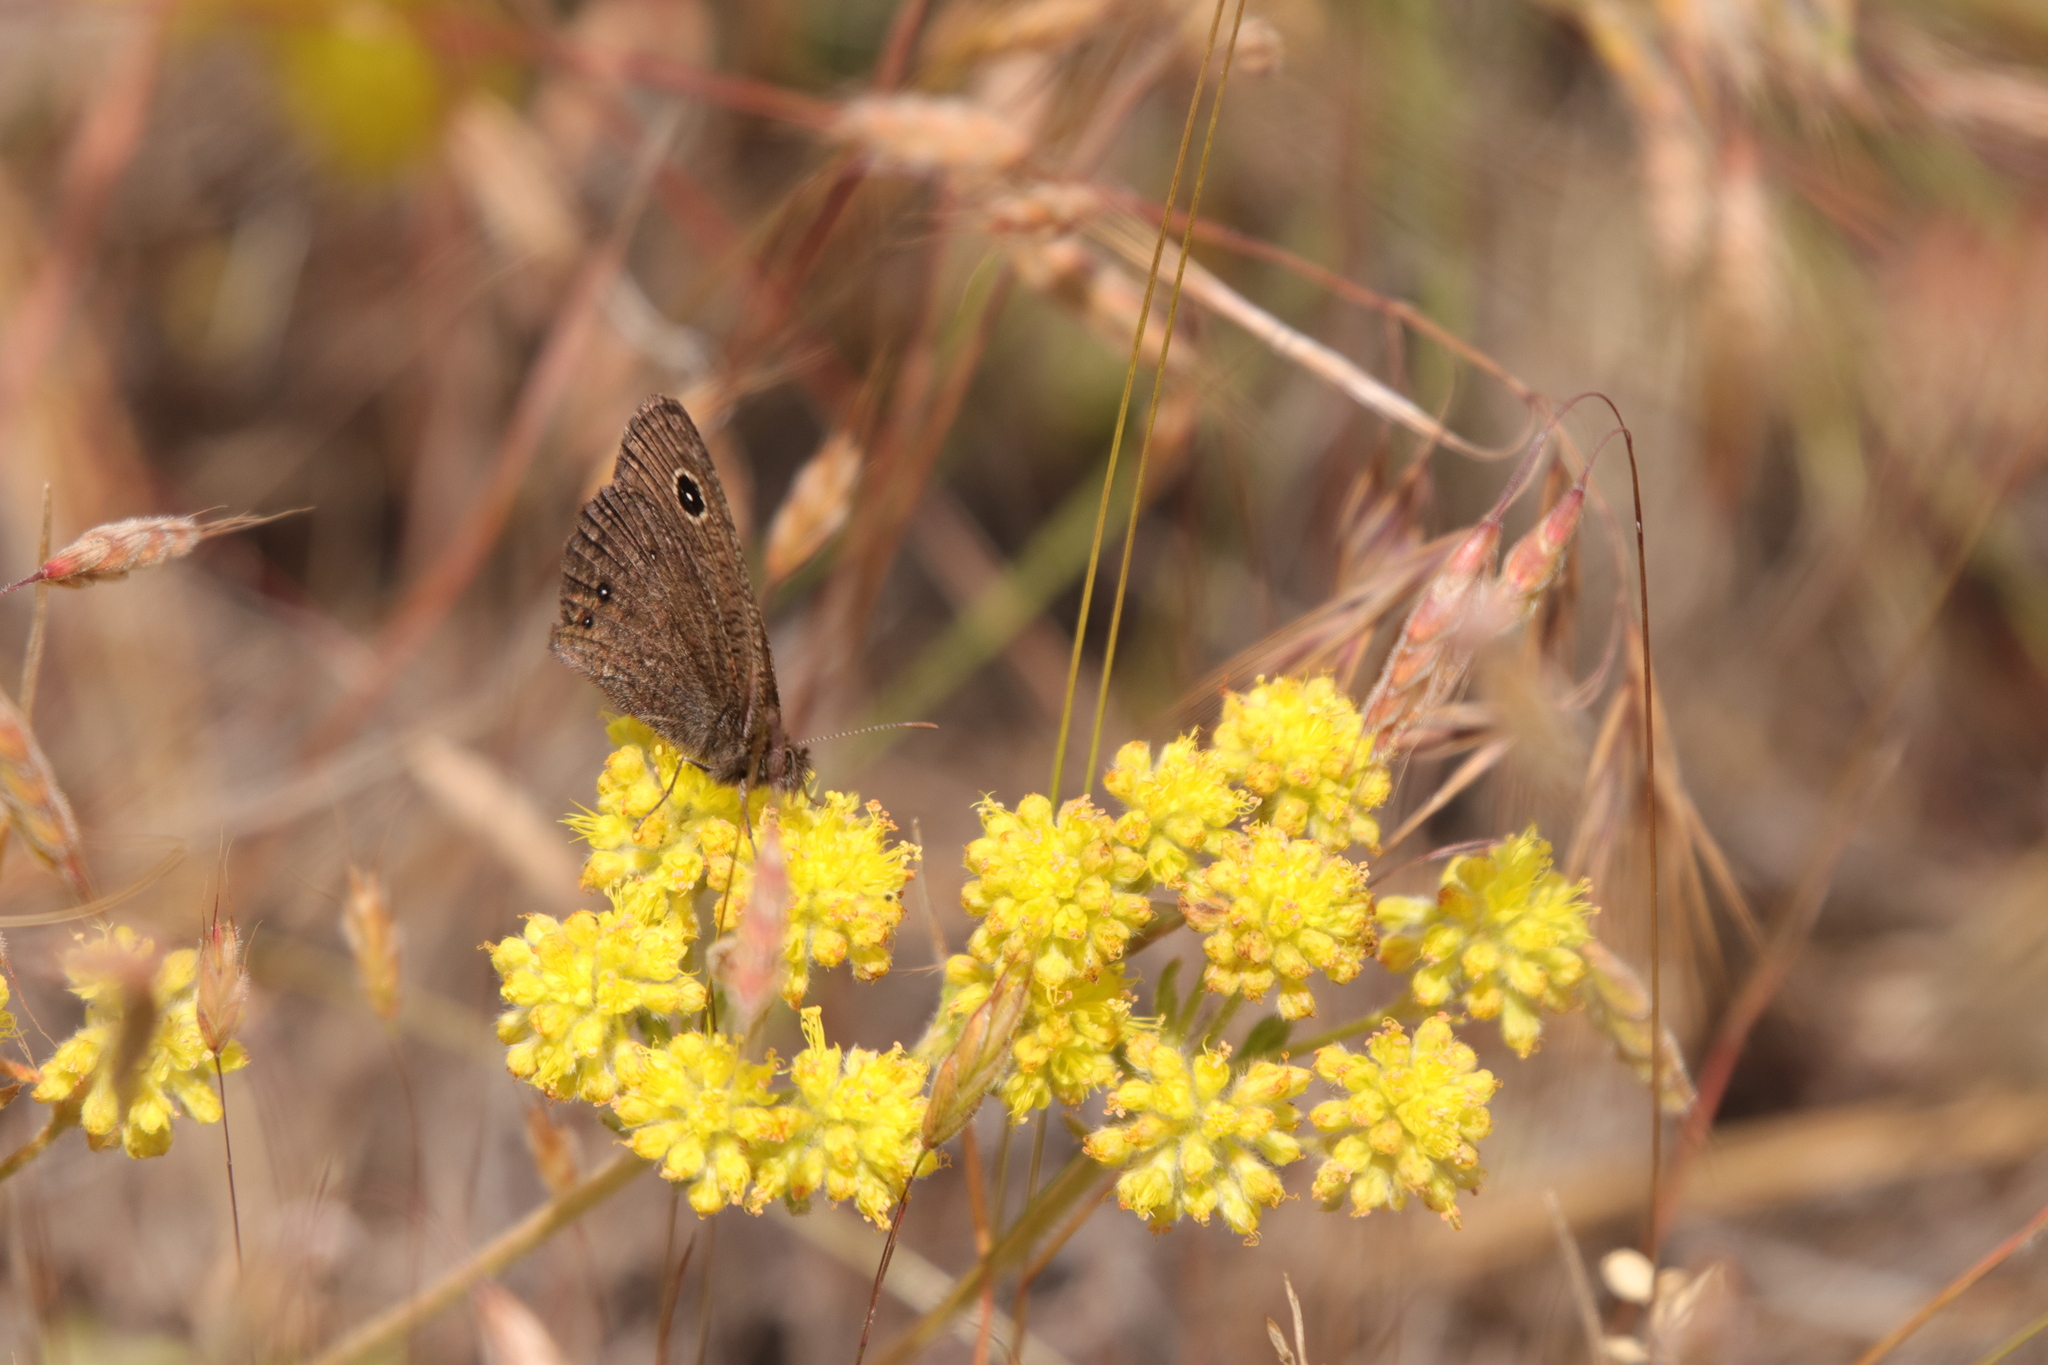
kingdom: Animalia
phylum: Arthropoda
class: Insecta
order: Lepidoptera
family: Nymphalidae
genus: Cercyonis
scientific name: Cercyonis oetus
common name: Small wood-nymph
